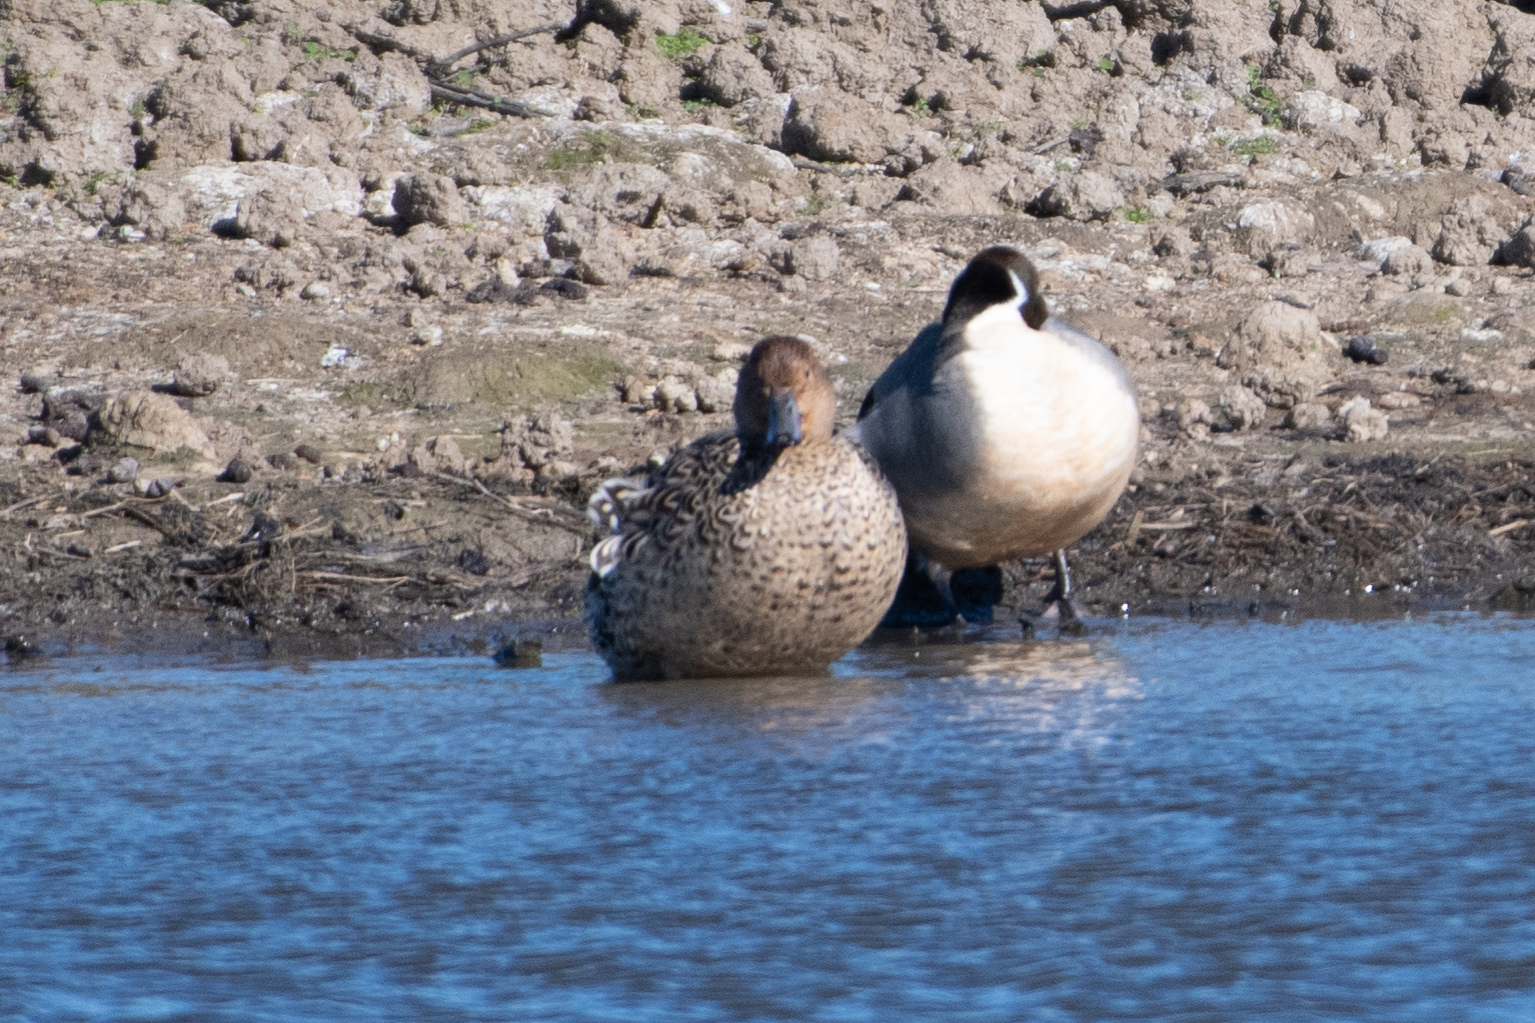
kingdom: Animalia
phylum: Chordata
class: Aves
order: Anseriformes
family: Anatidae
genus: Anas
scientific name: Anas acuta
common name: Northern pintail
